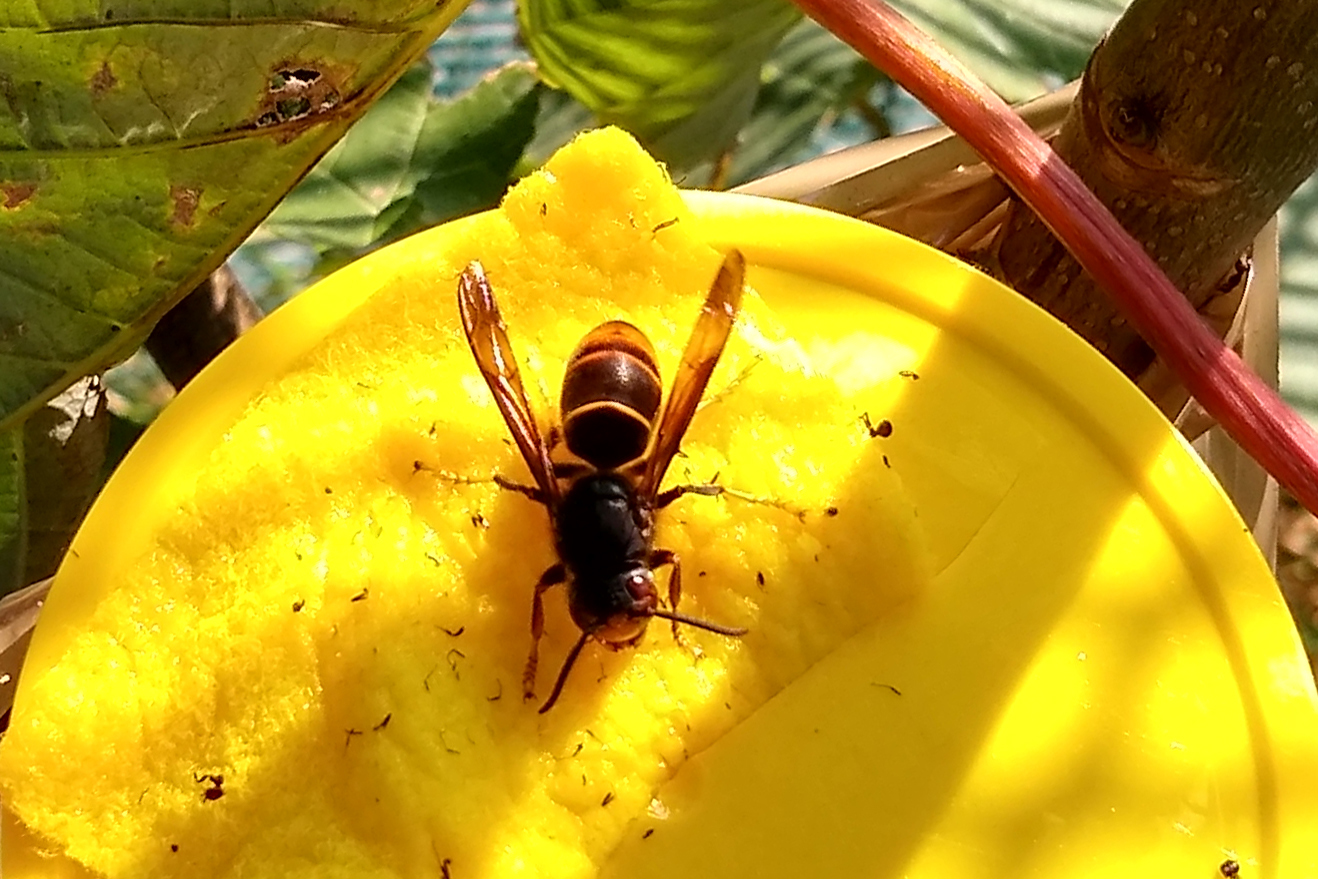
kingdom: Animalia
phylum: Arthropoda
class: Insecta
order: Hymenoptera
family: Vespidae
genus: Vespa
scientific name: Vespa velutina
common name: Asian hornet
